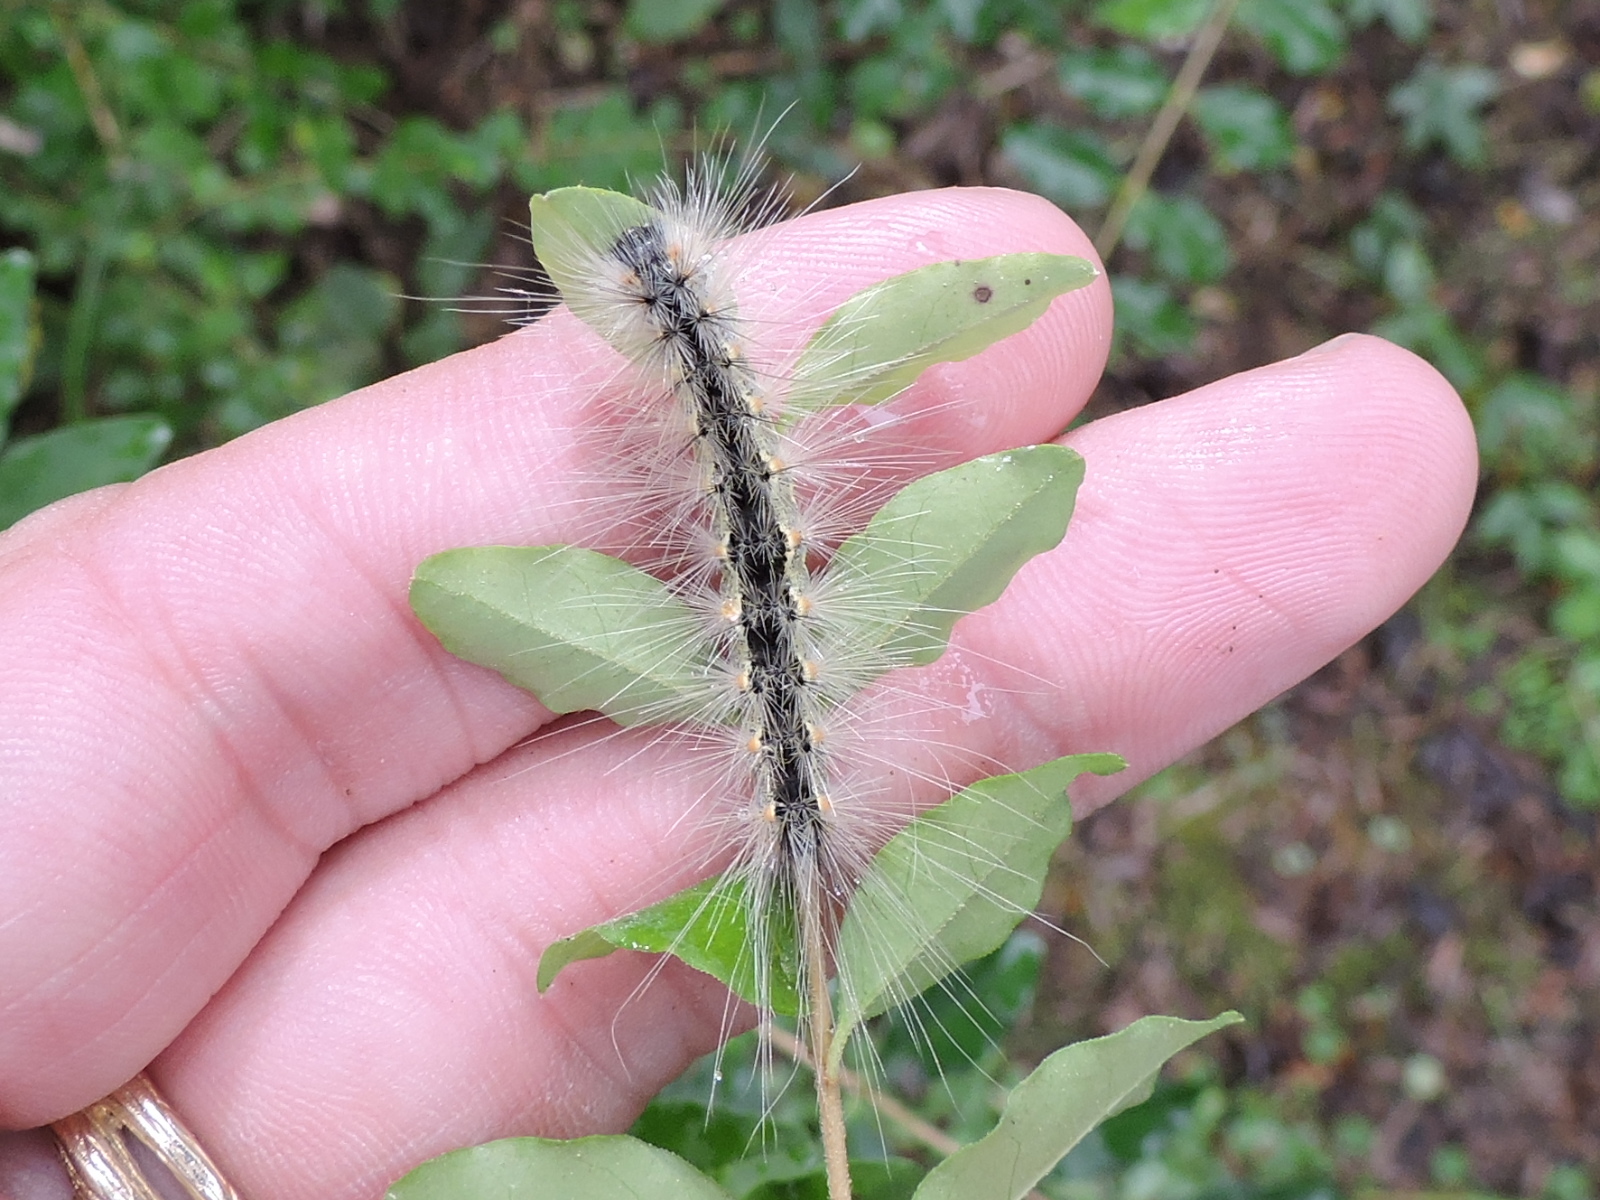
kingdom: Animalia
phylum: Arthropoda
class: Insecta
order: Lepidoptera
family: Erebidae
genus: Hyphantria
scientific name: Hyphantria cunea
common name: American white moth
